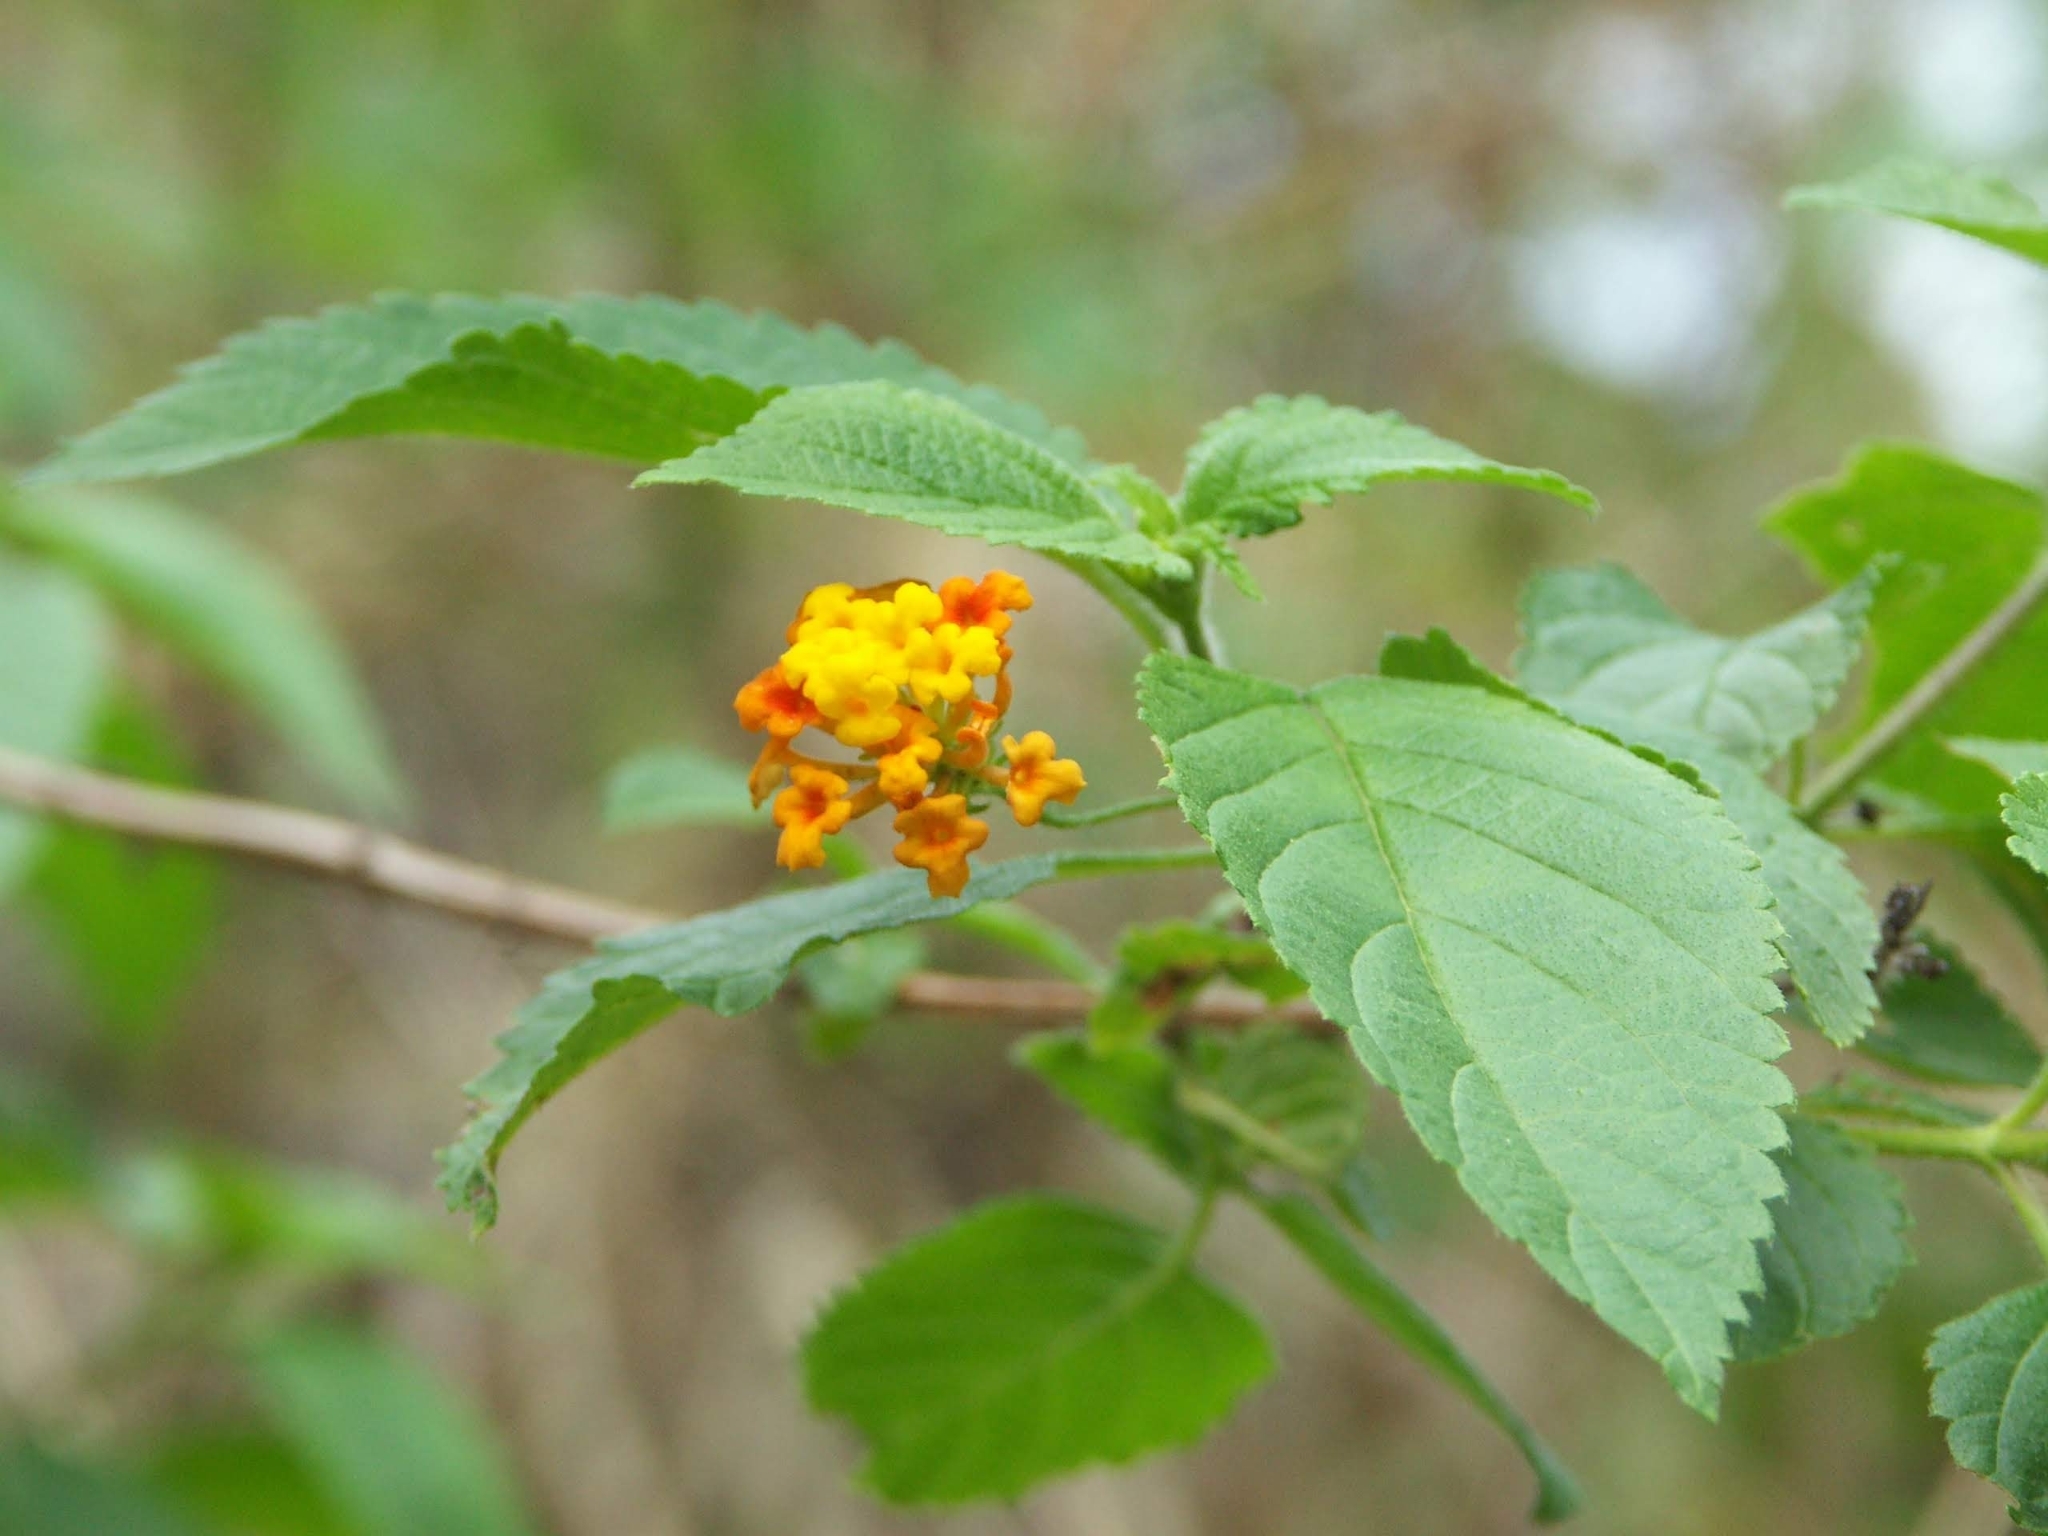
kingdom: Plantae
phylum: Tracheophyta
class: Magnoliopsida
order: Lamiales
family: Verbenaceae
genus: Lantana
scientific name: Lantana camara
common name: Lantana
